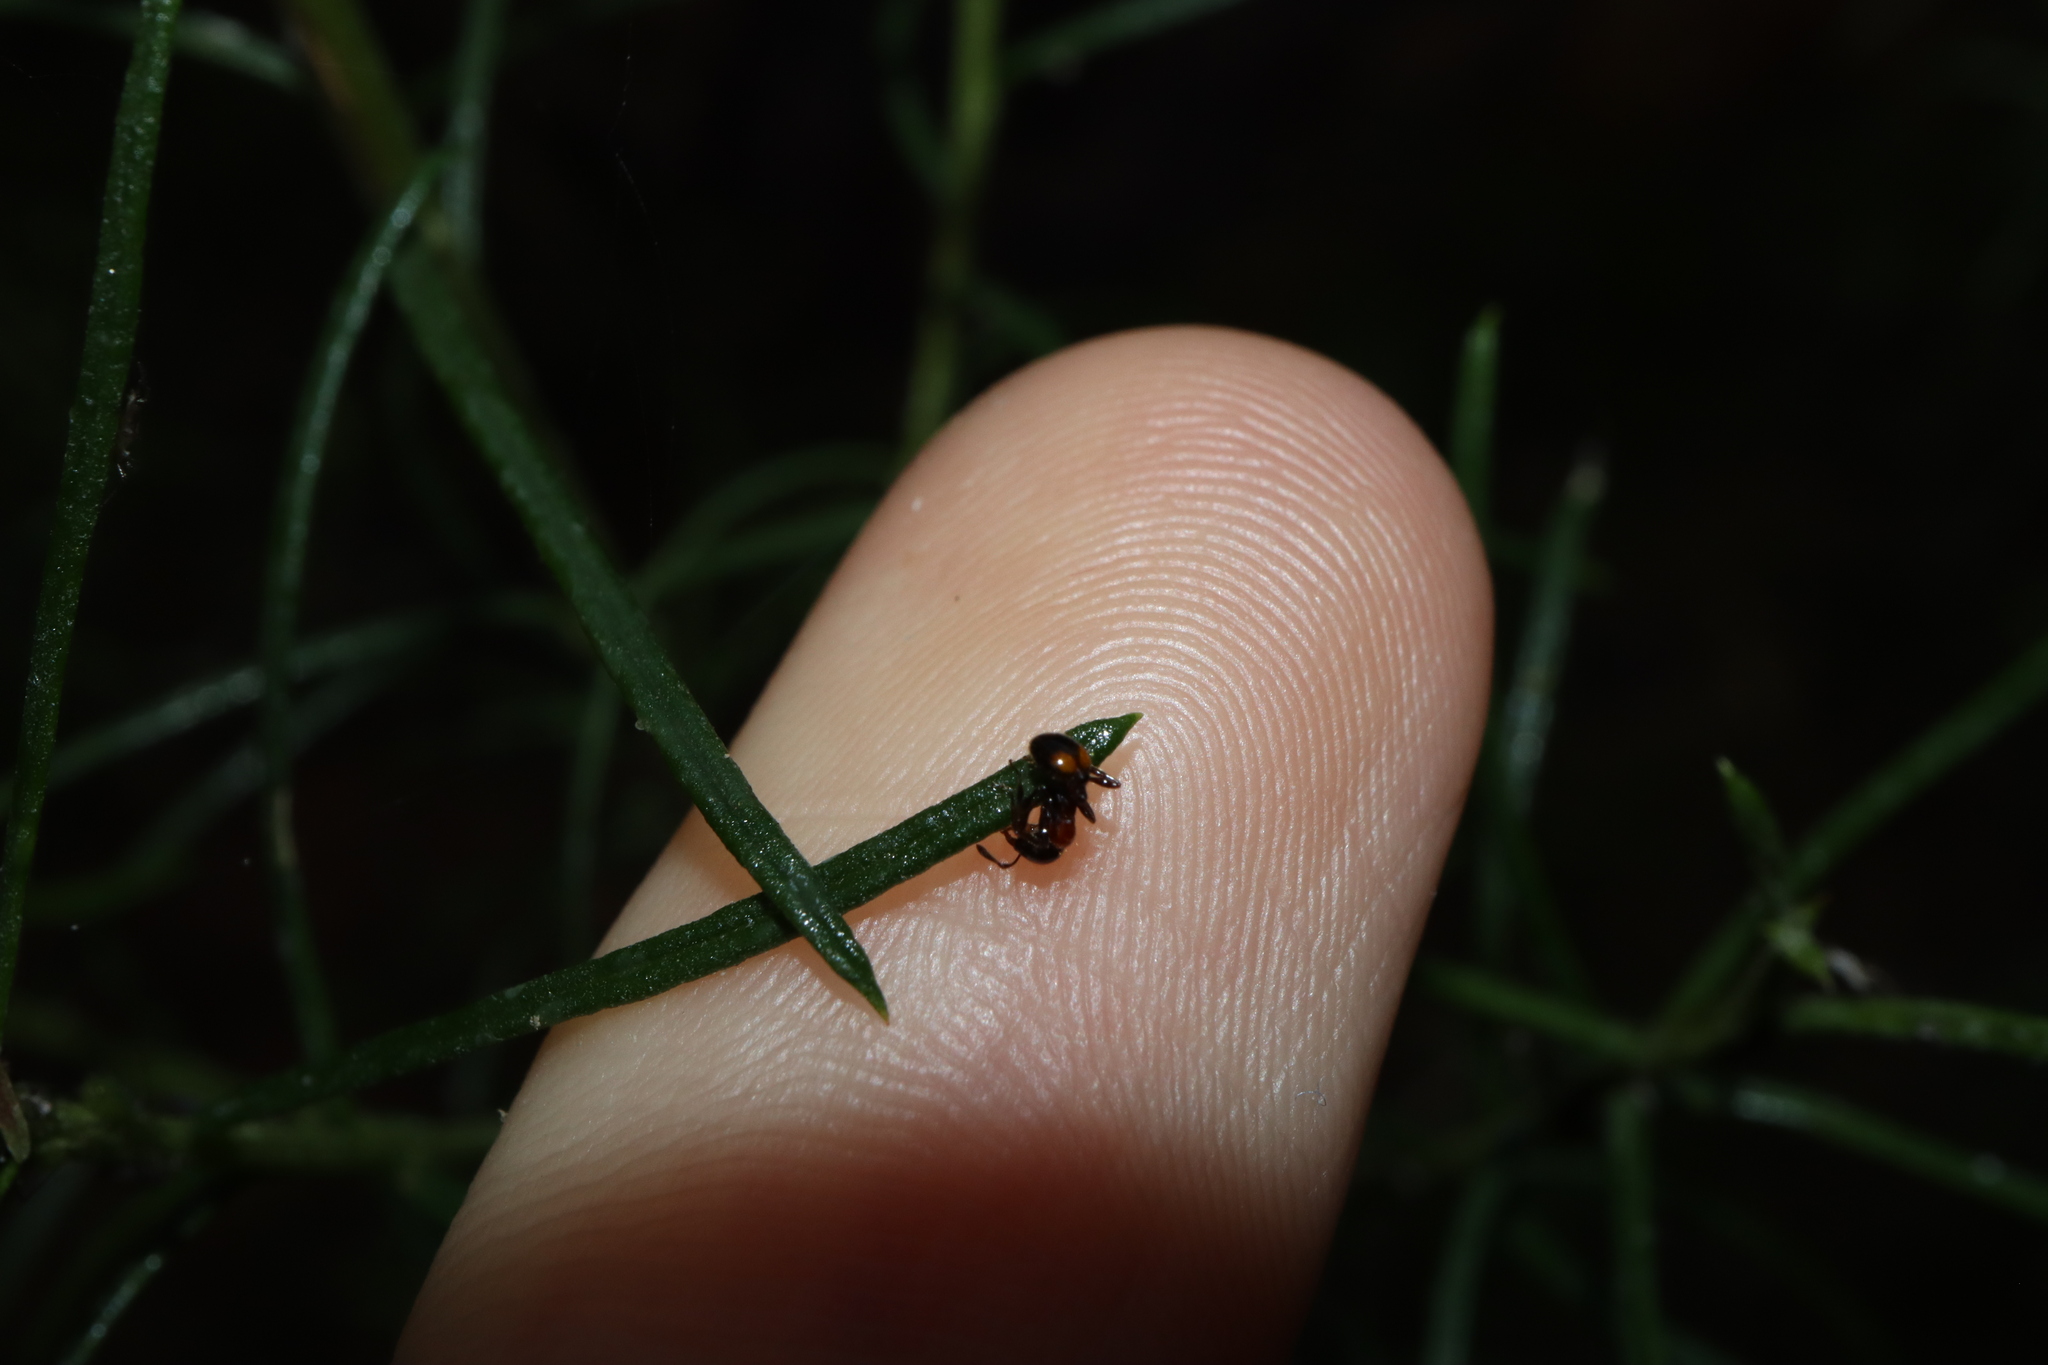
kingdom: Animalia
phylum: Arthropoda
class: Insecta
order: Hymenoptera
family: Formicidae
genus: Chelaner
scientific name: Chelaner
